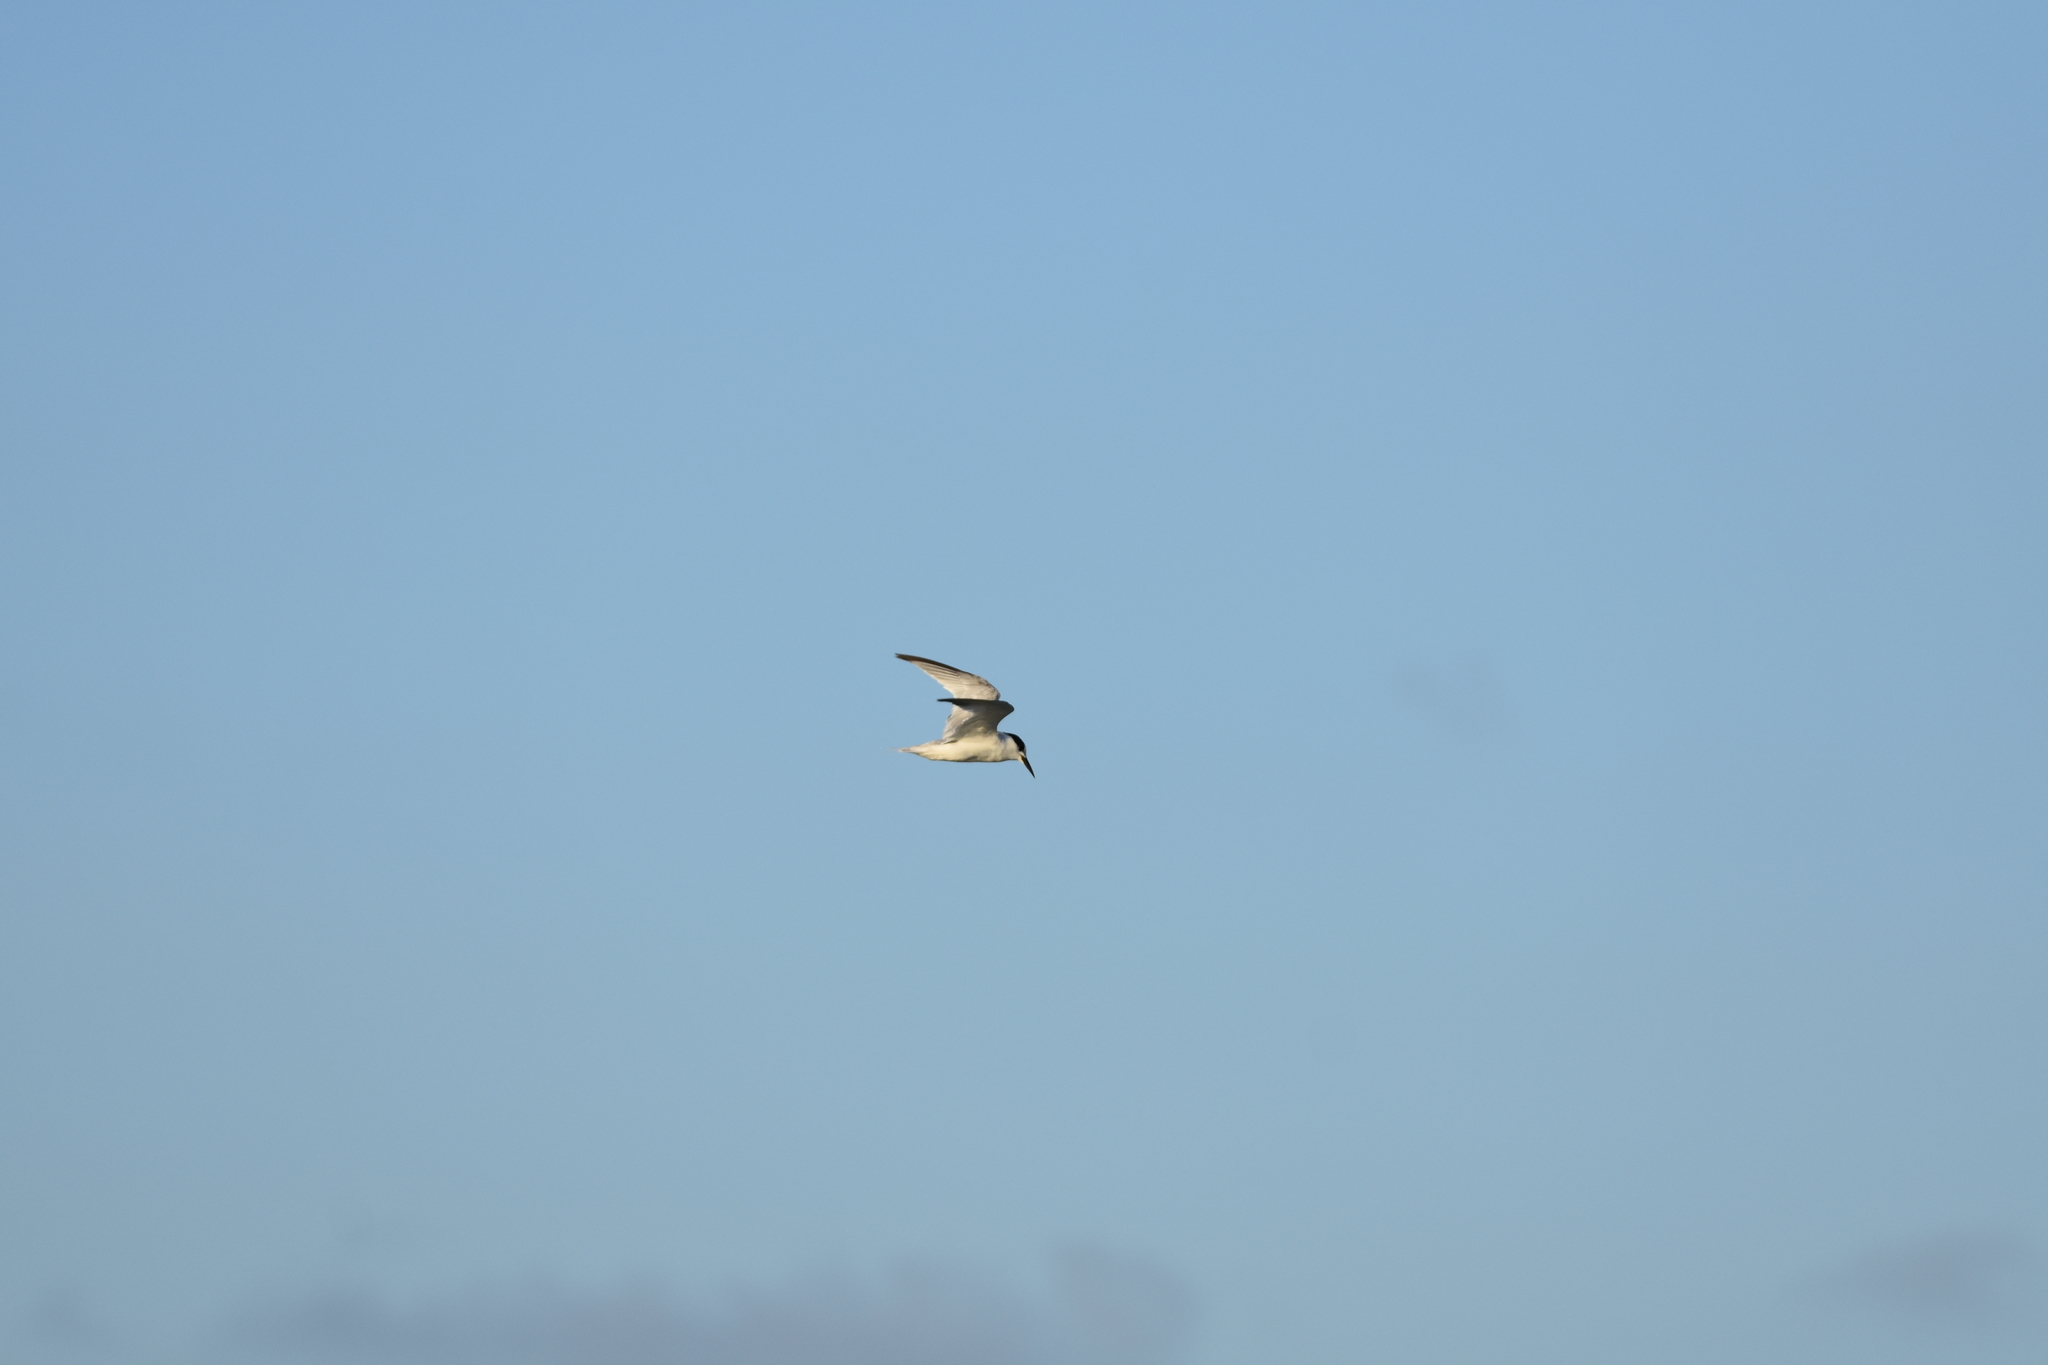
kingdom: Animalia
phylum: Chordata
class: Aves
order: Charadriiformes
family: Laridae
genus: Sternula
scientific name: Sternula antillarum
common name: Least tern
